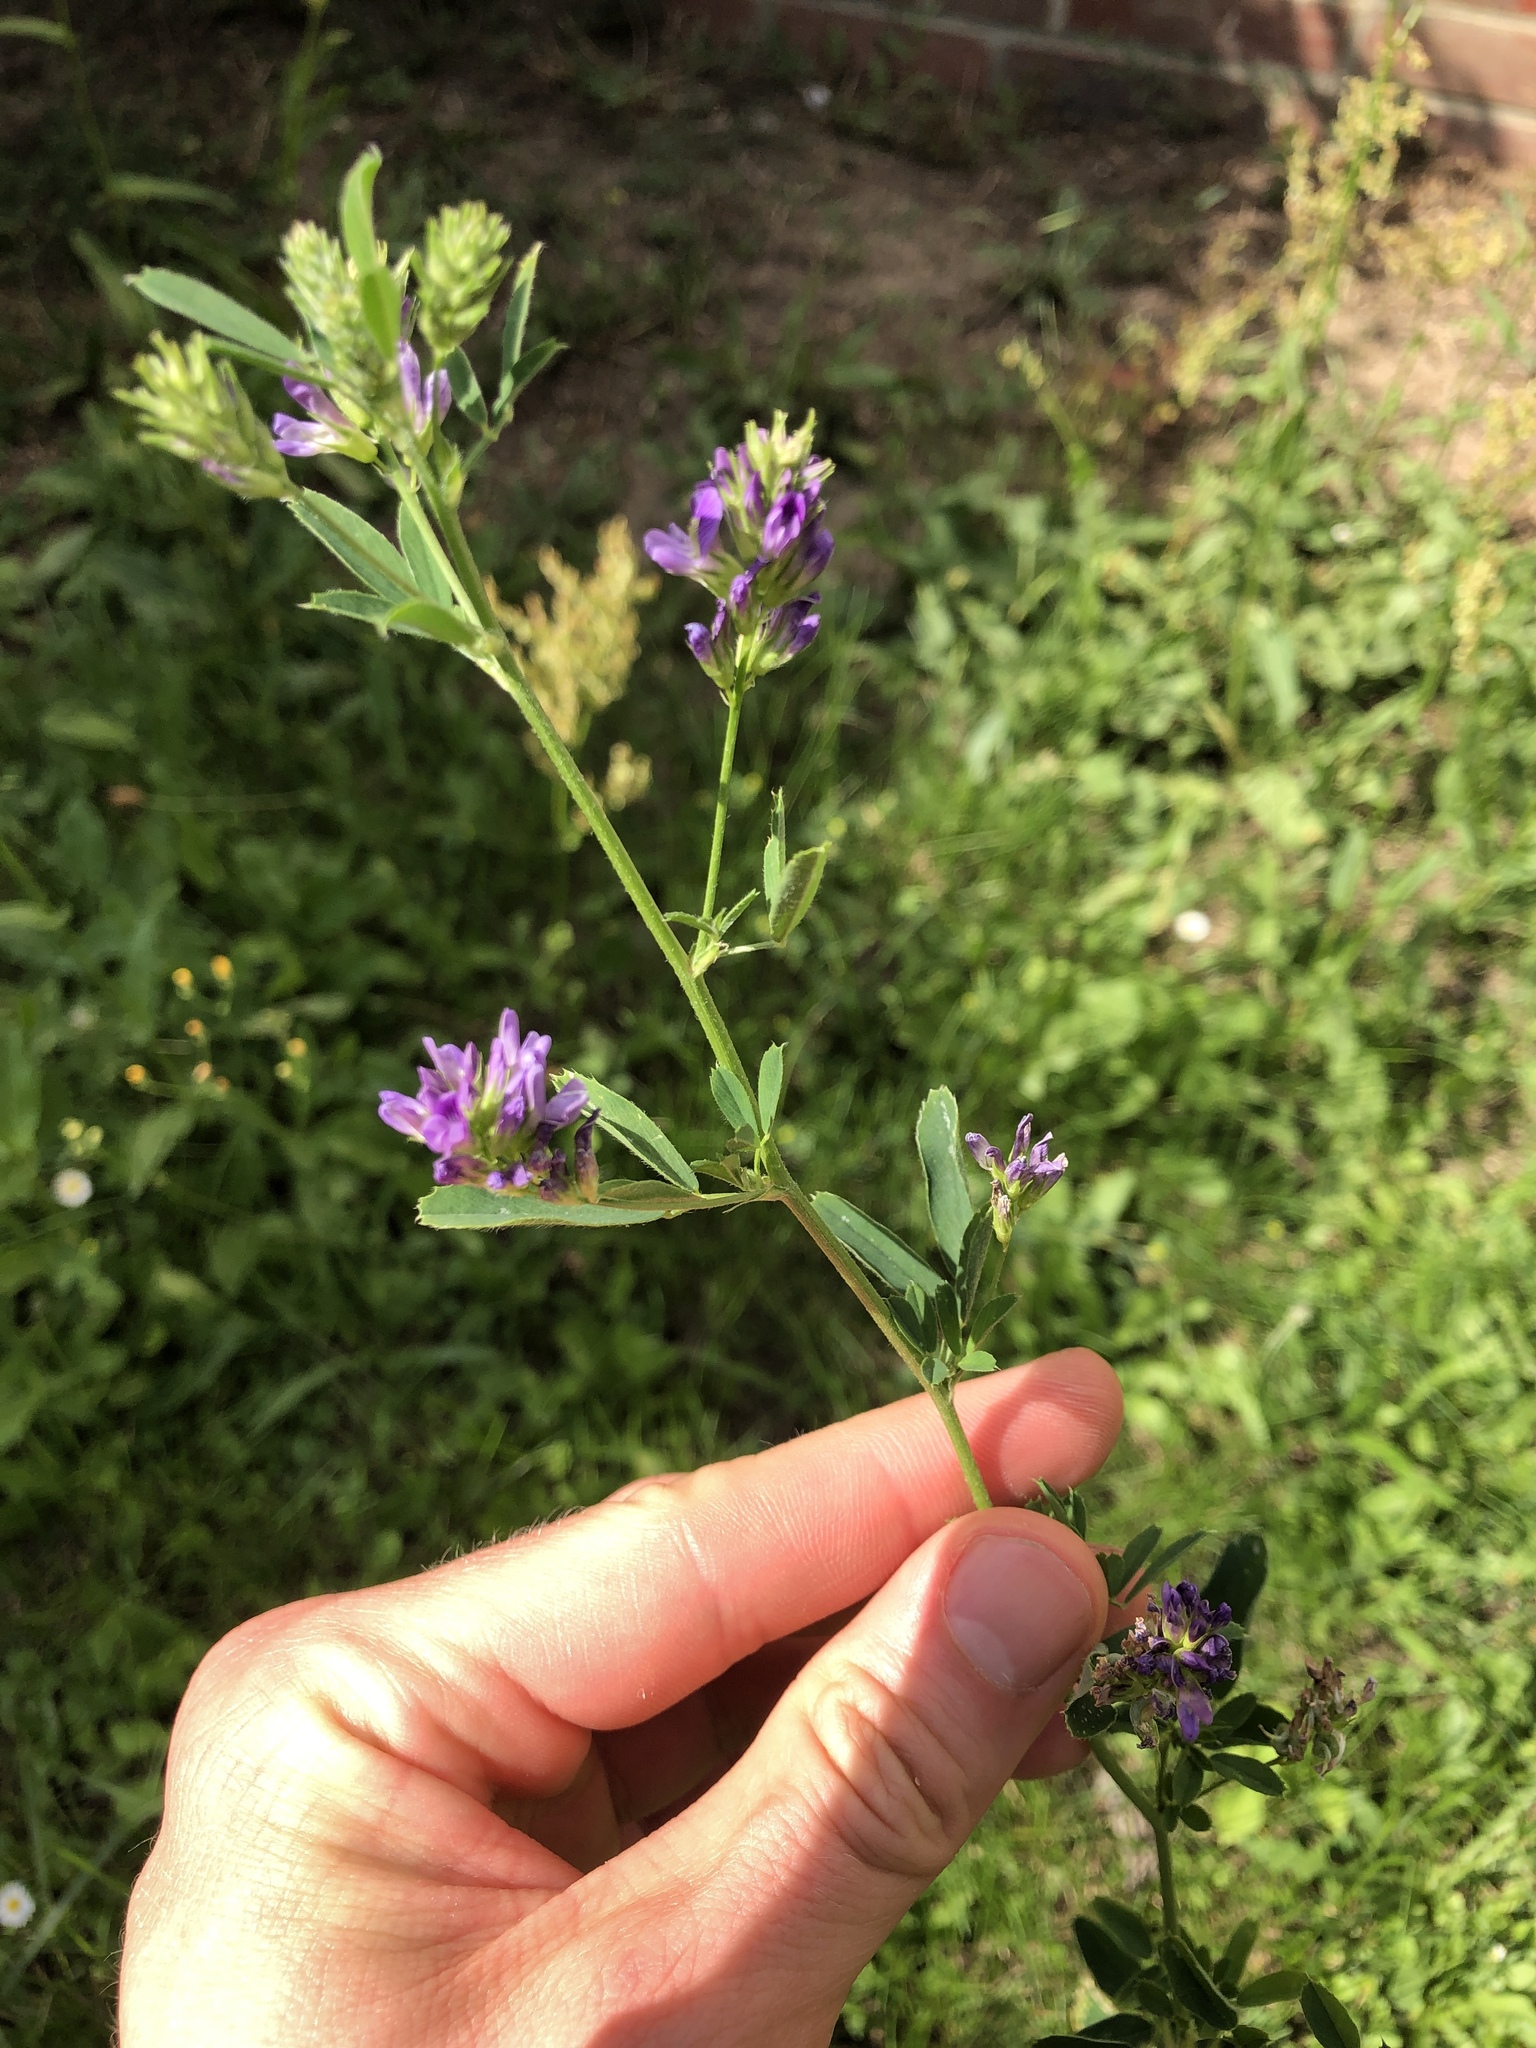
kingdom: Plantae
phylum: Tracheophyta
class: Magnoliopsida
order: Fabales
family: Fabaceae
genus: Medicago
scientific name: Medicago sativa
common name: Alfalfa
